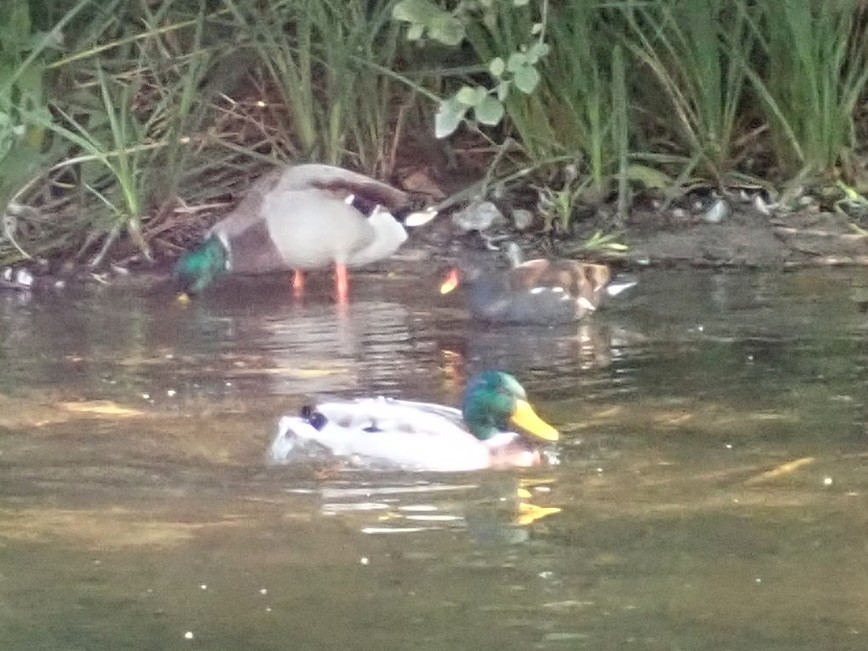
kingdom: Animalia
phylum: Chordata
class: Aves
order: Gruiformes
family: Rallidae
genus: Gallinula
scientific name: Gallinula chloropus
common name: Common moorhen
